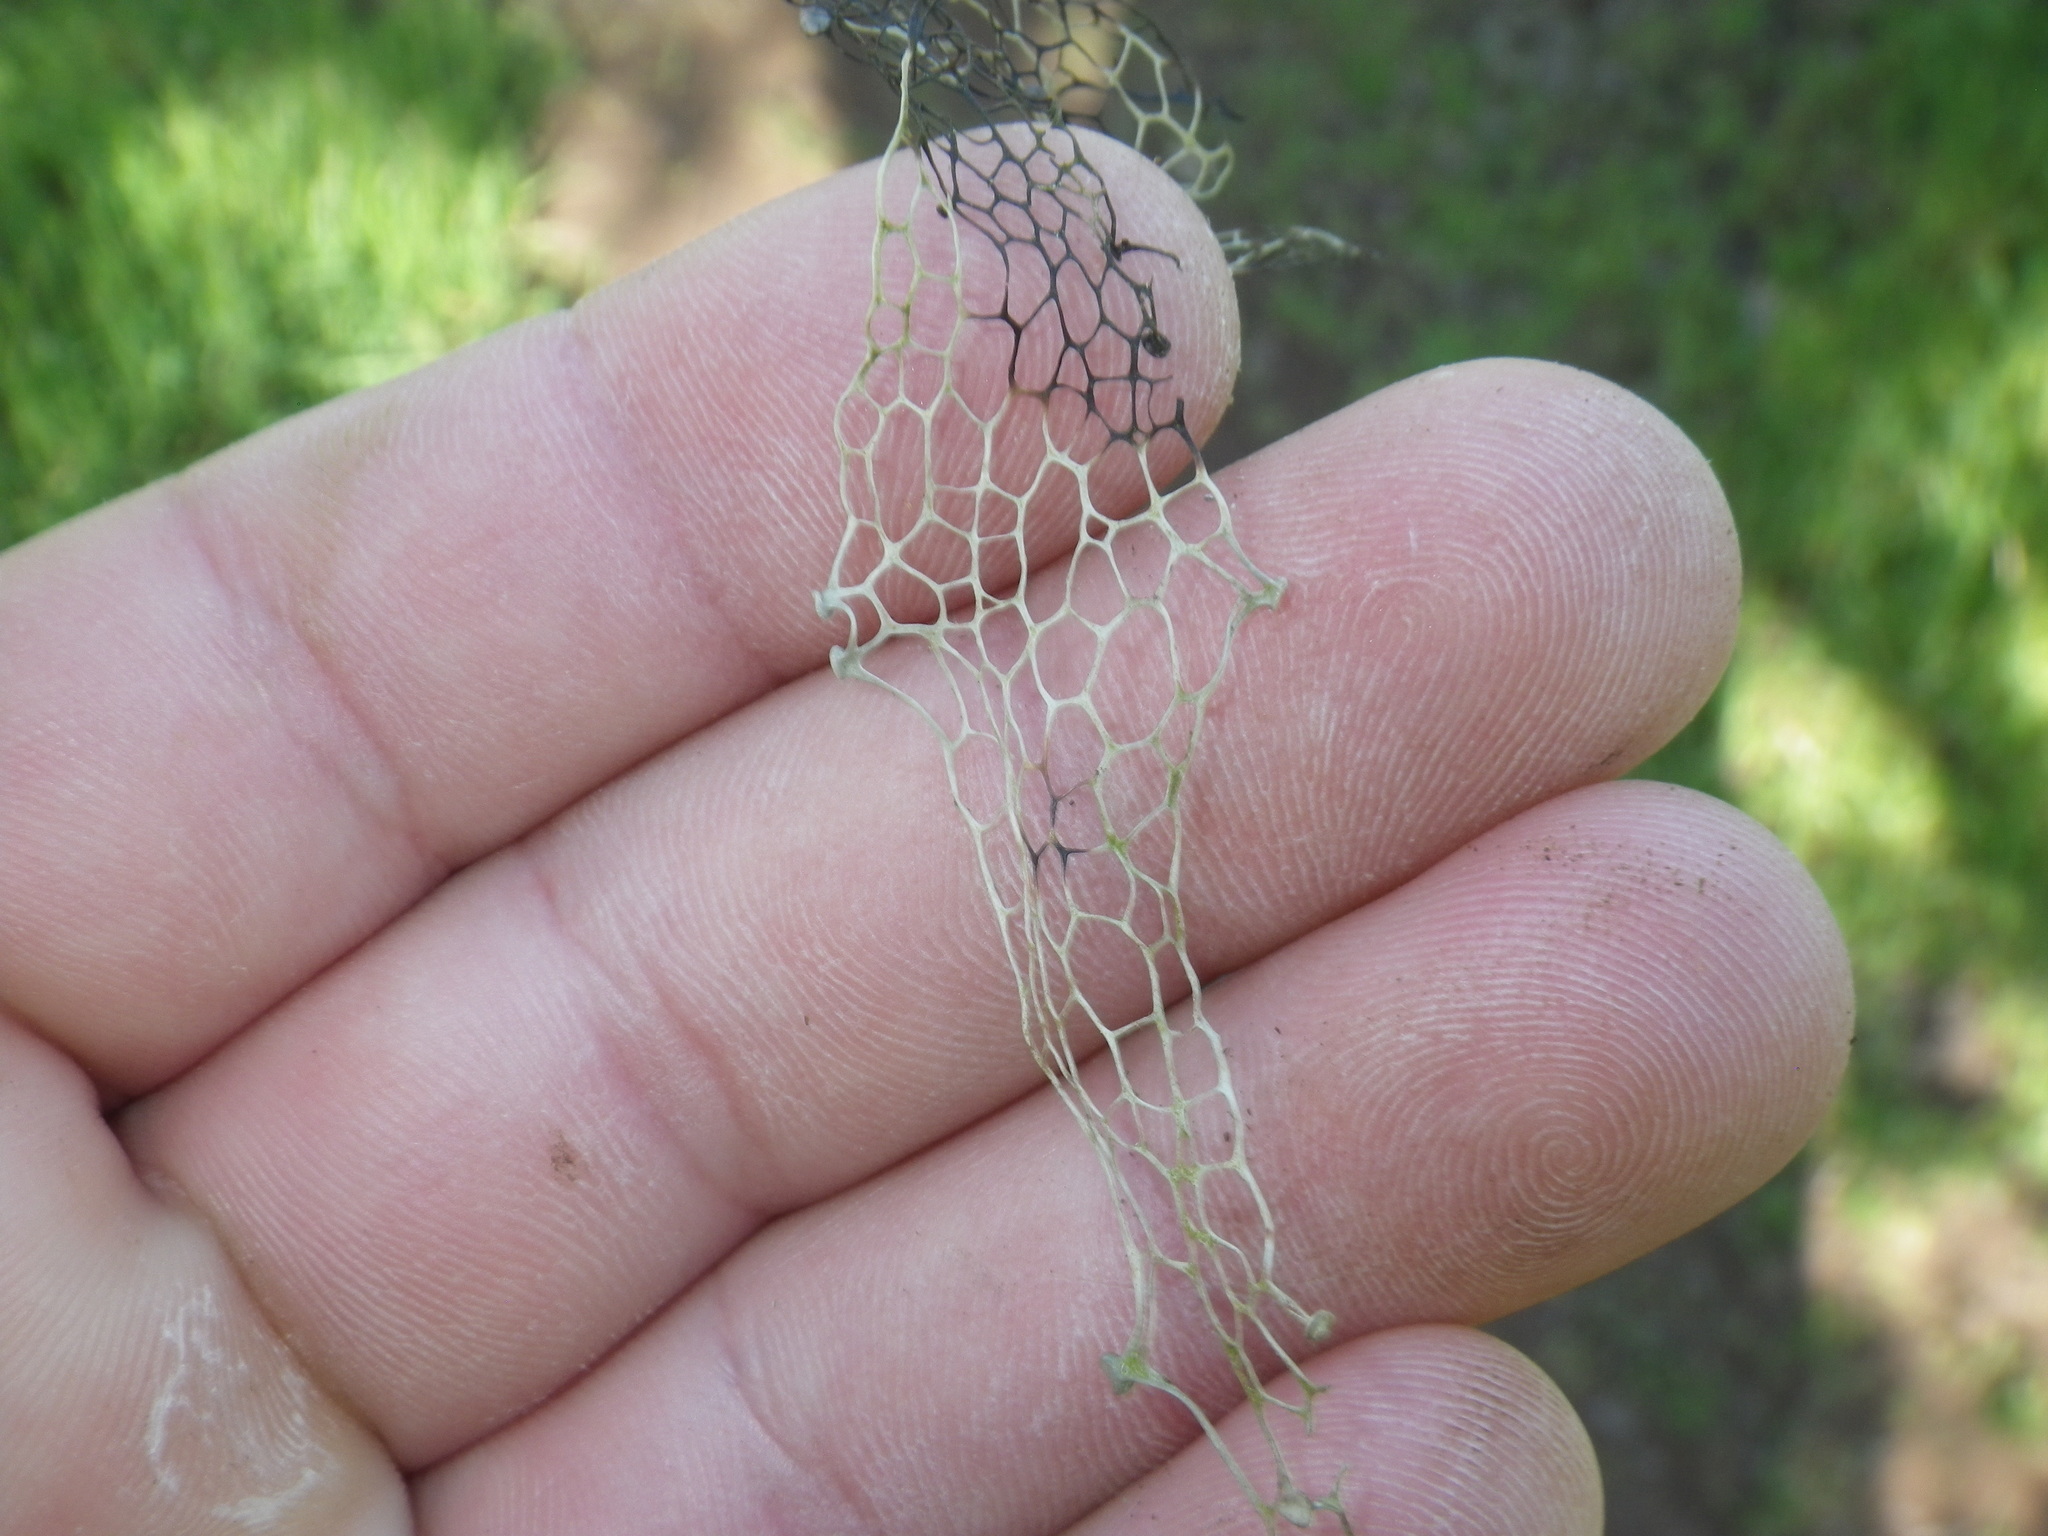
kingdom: Fungi
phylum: Ascomycota
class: Lecanoromycetes
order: Lecanorales
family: Ramalinaceae
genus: Ramalina
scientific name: Ramalina menziesii
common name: Lace lichen
